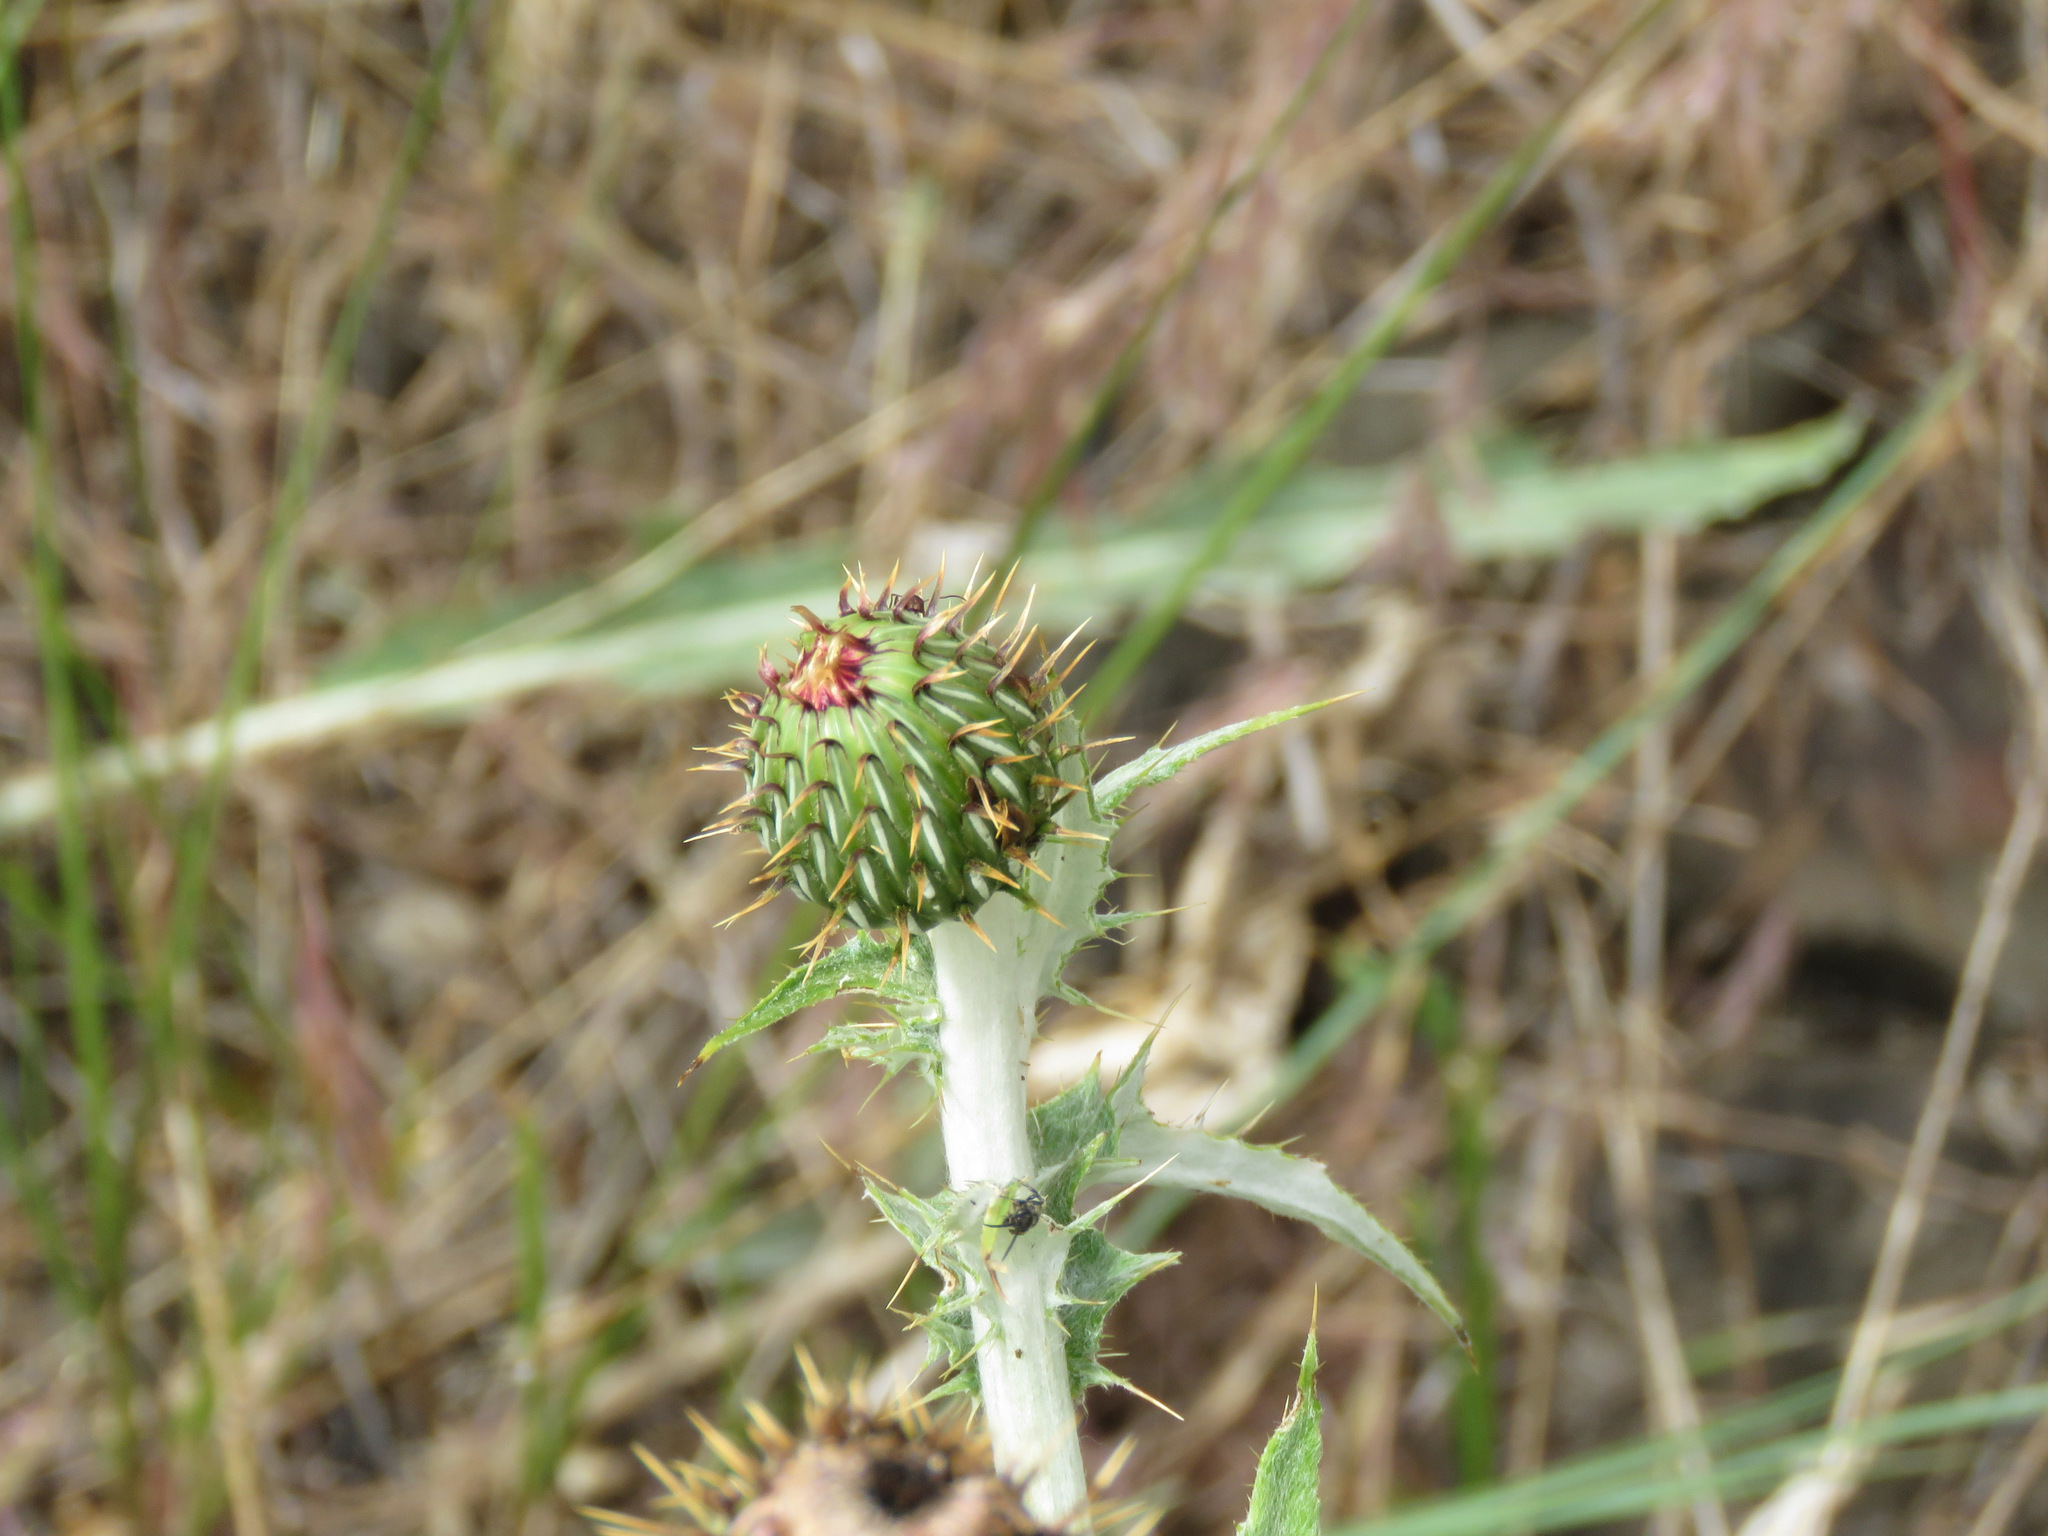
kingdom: Plantae
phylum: Tracheophyta
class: Magnoliopsida
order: Asterales
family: Asteraceae
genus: Cirsium
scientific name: Cirsium undulatum
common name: Pasture thistle
